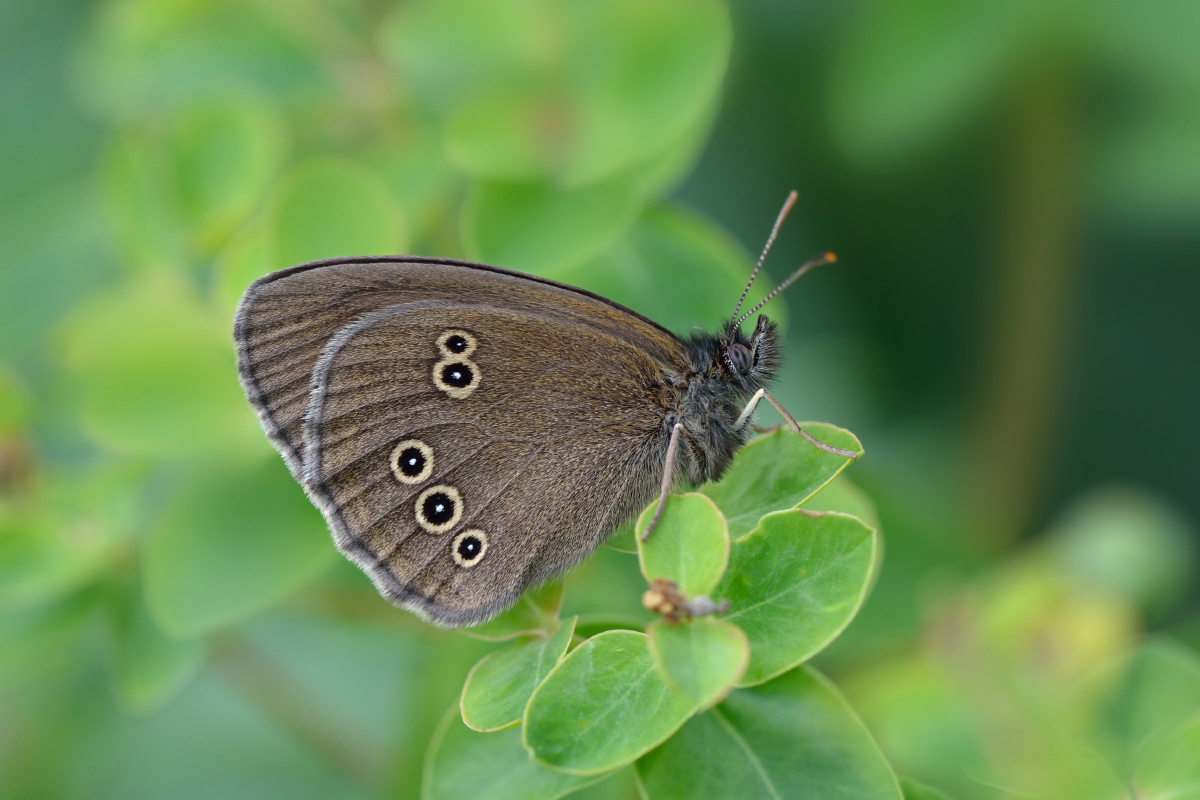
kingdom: Animalia
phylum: Arthropoda
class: Insecta
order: Lepidoptera
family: Nymphalidae
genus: Aphantopus
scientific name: Aphantopus hyperantus
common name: Ringlet
